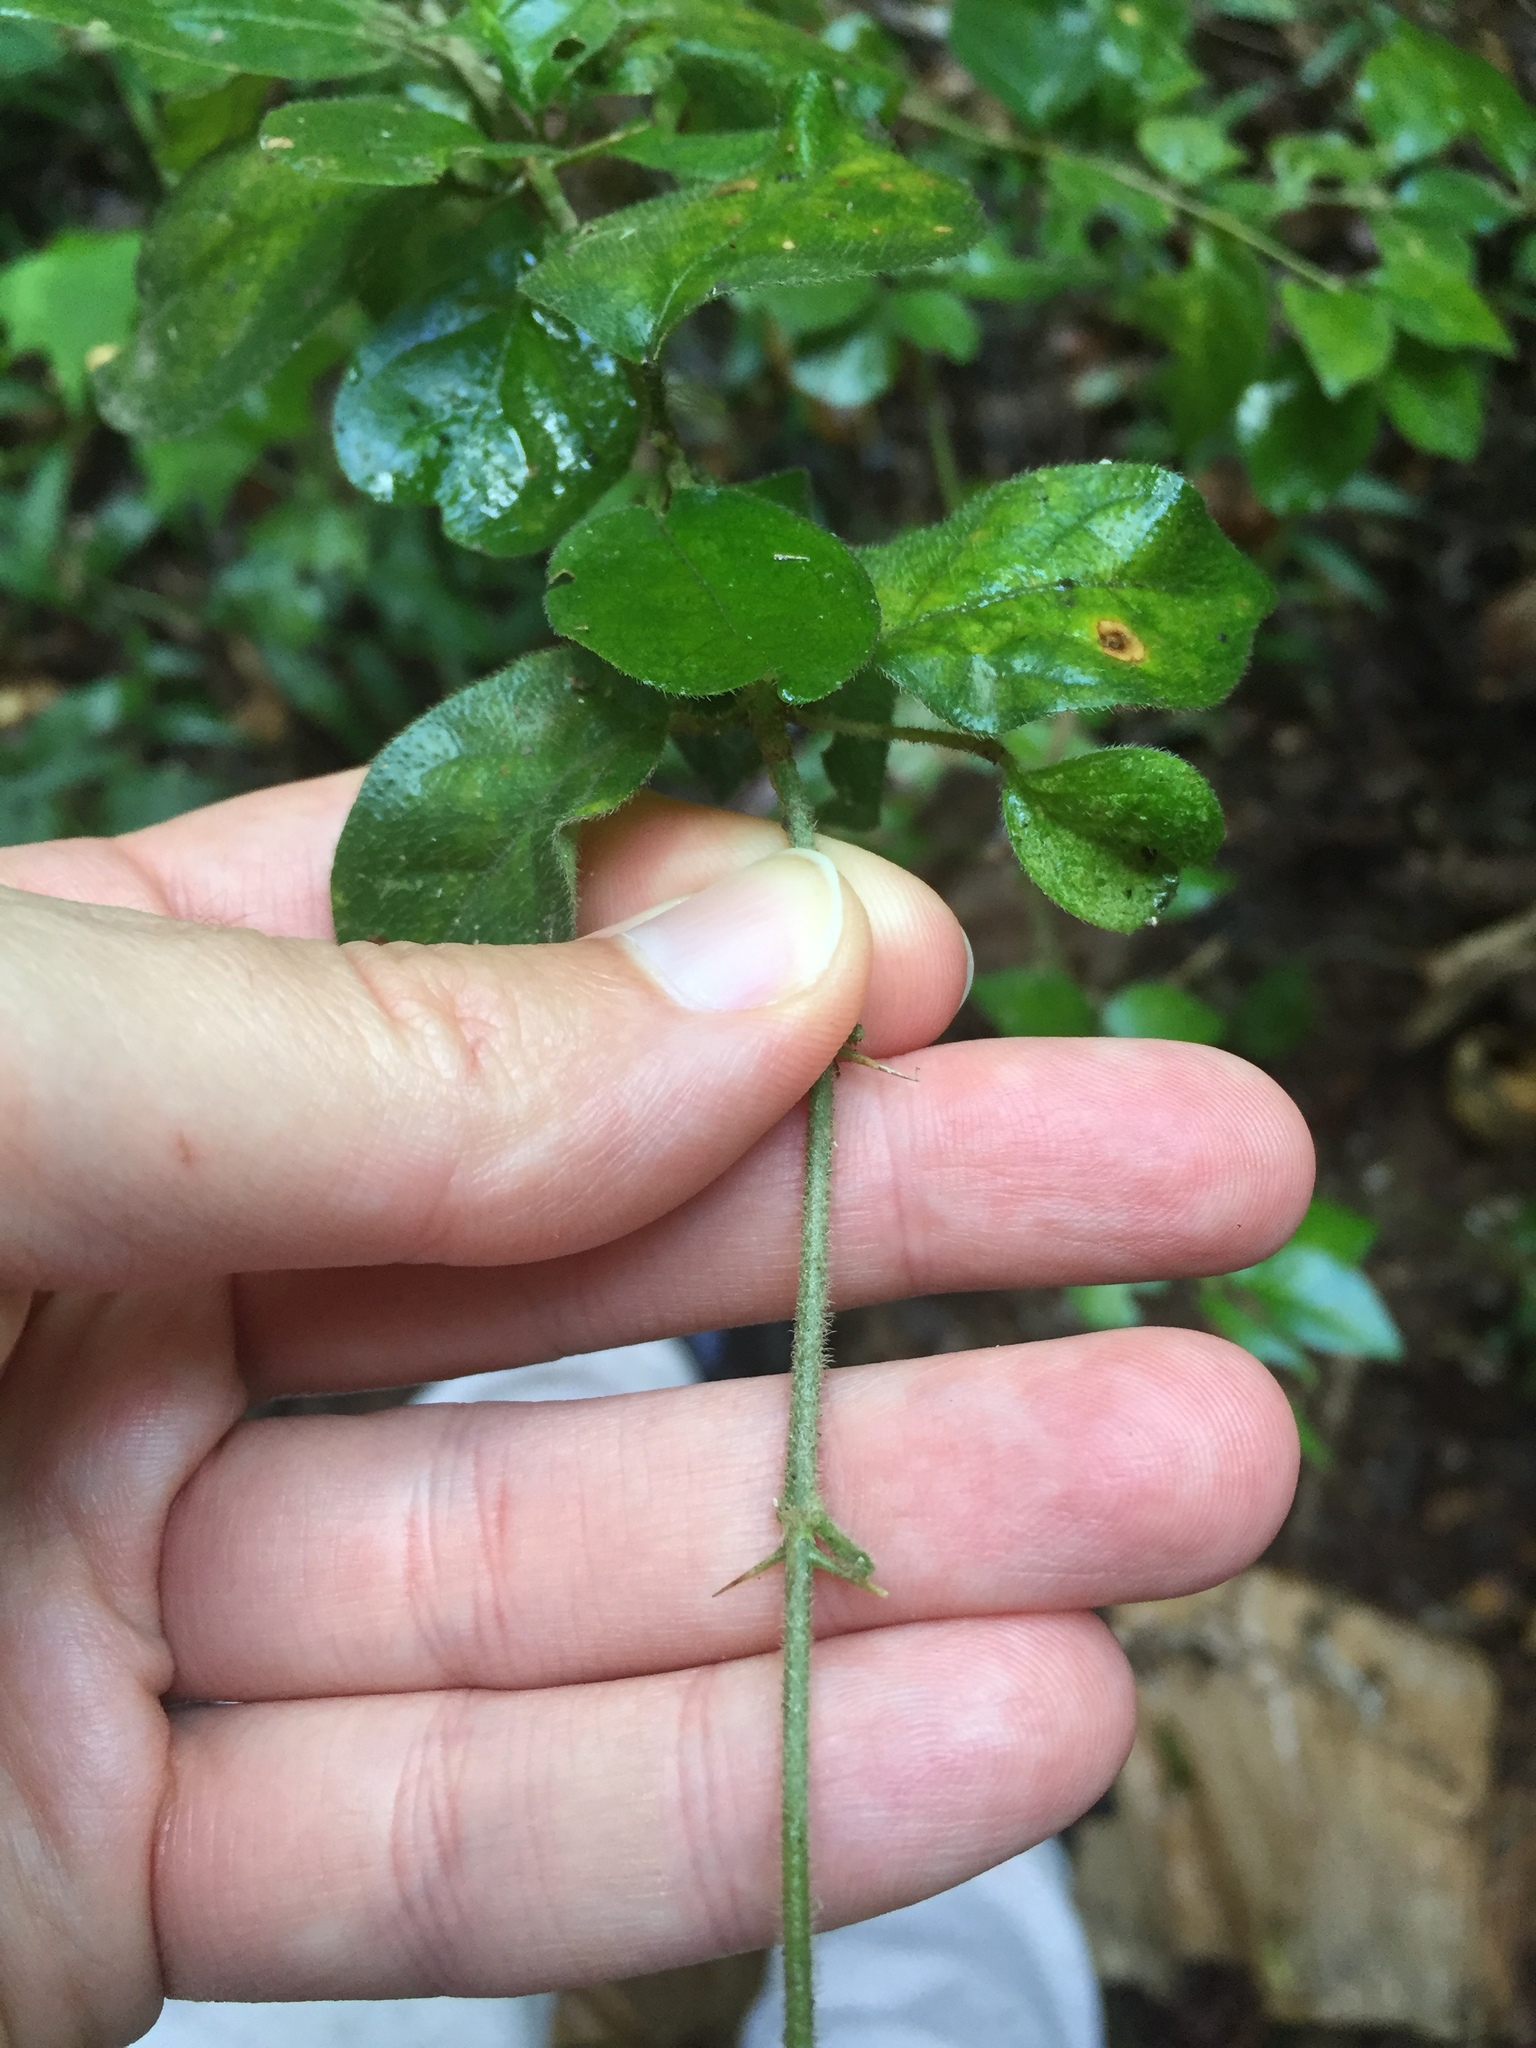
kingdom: Plantae
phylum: Tracheophyta
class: Magnoliopsida
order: Gentianales
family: Rubiaceae
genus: Canthium
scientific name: Canthium ciliatum
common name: Hairy turkey-berry
